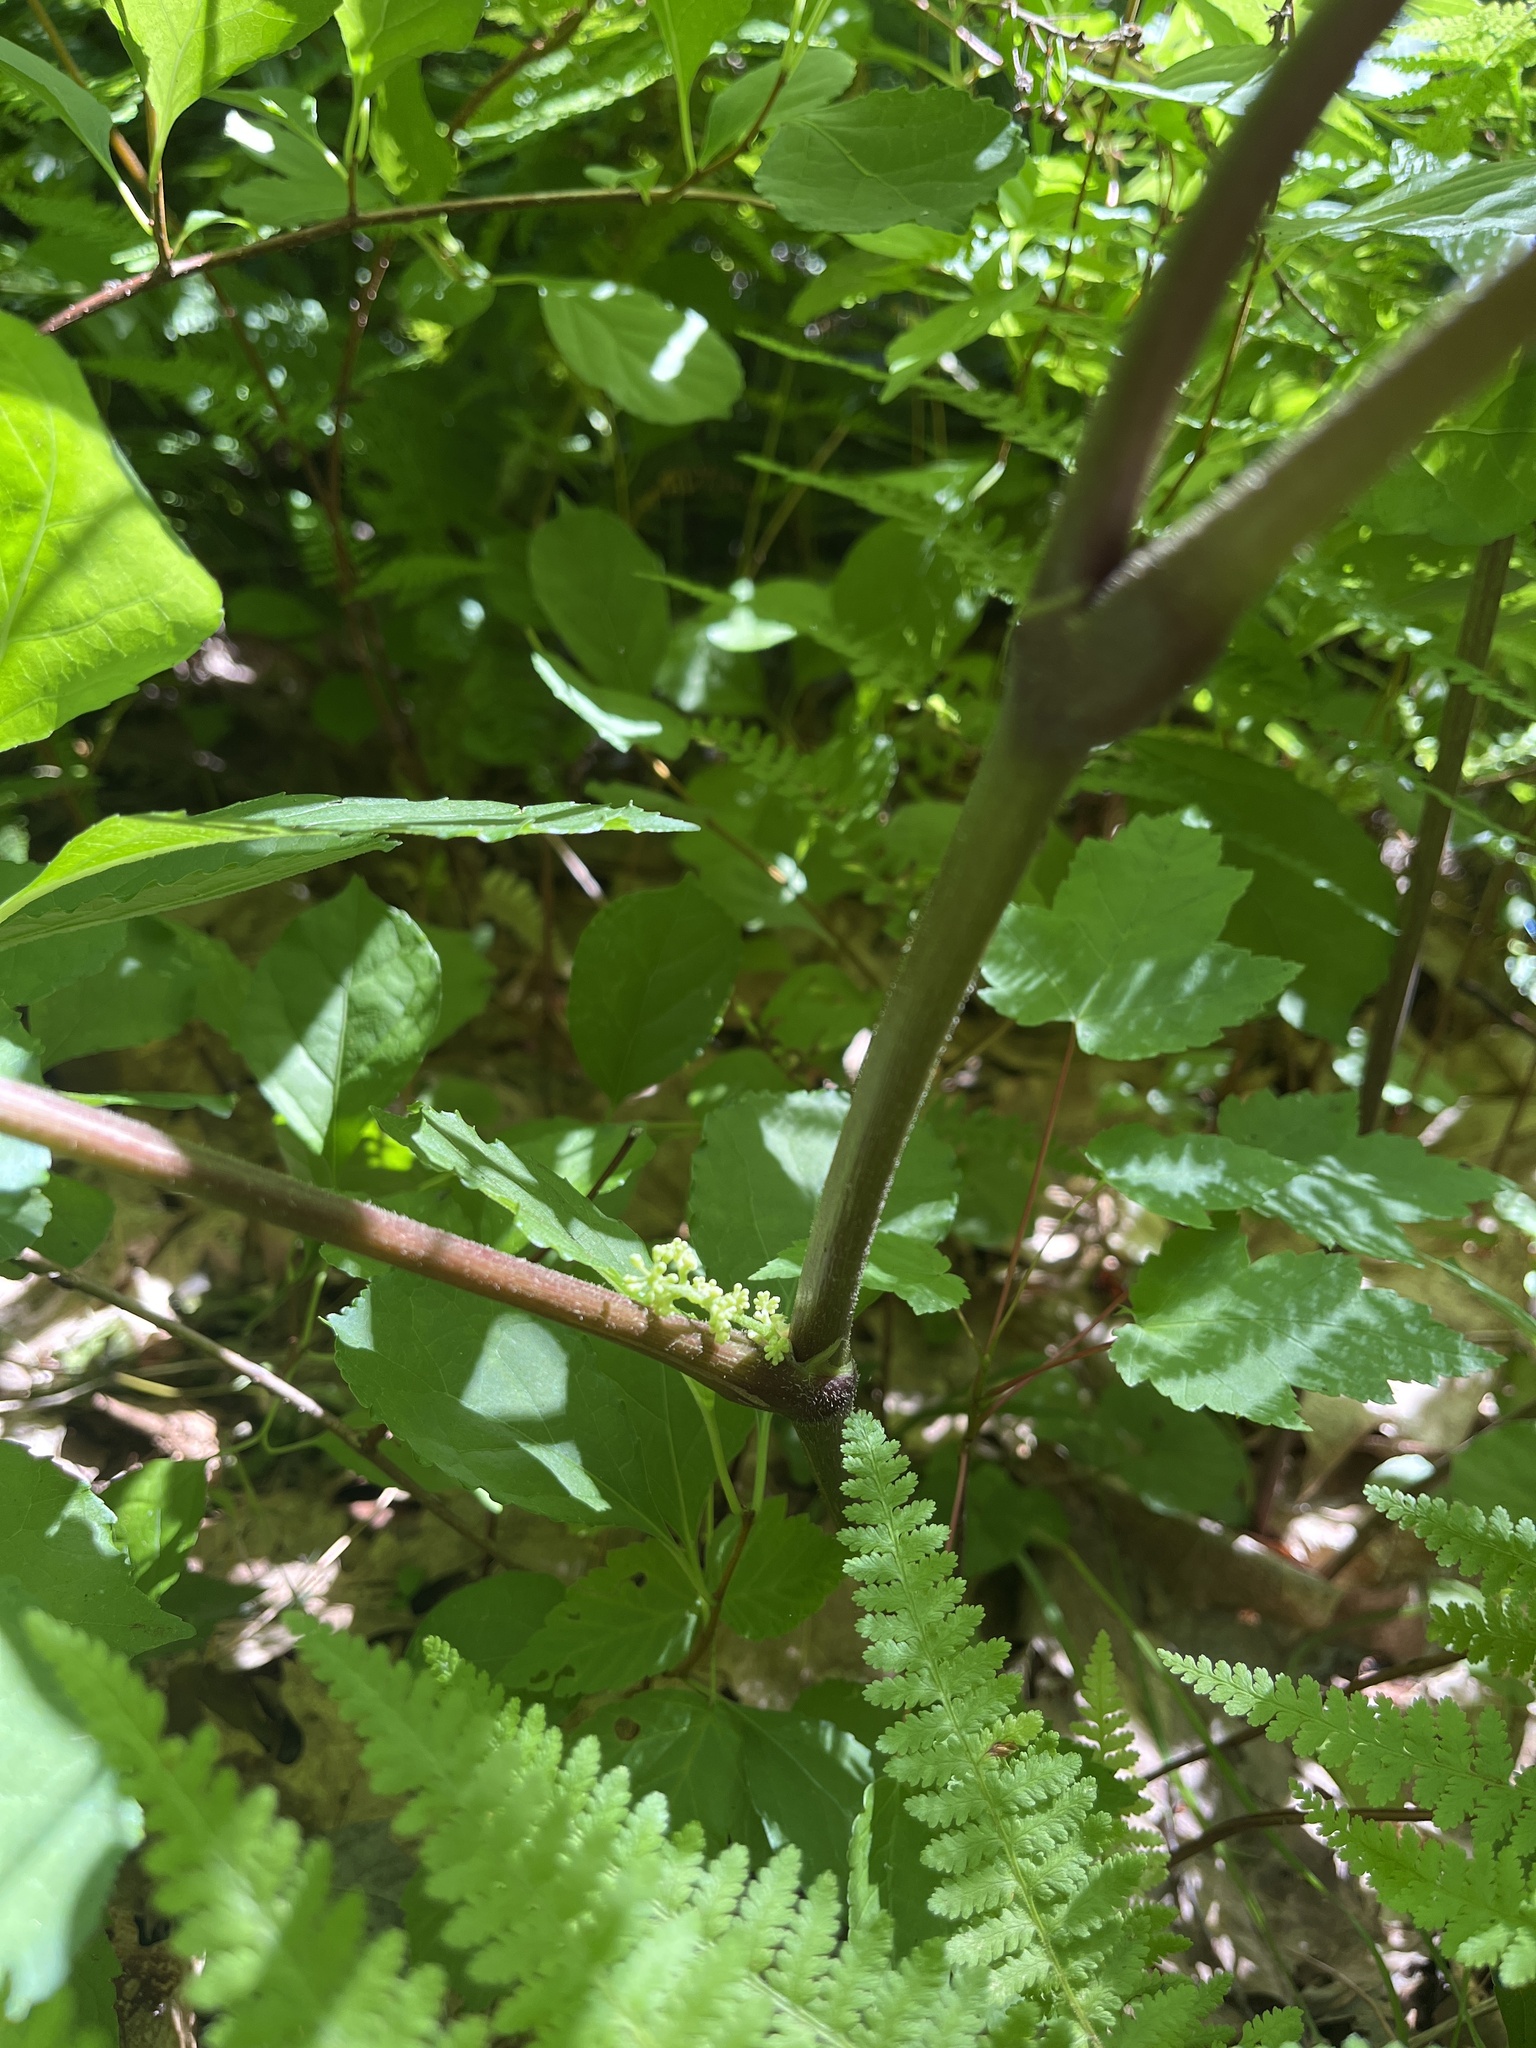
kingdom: Plantae
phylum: Tracheophyta
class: Magnoliopsida
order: Apiales
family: Araliaceae
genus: Aralia
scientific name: Aralia racemosa
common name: American-spikenard
